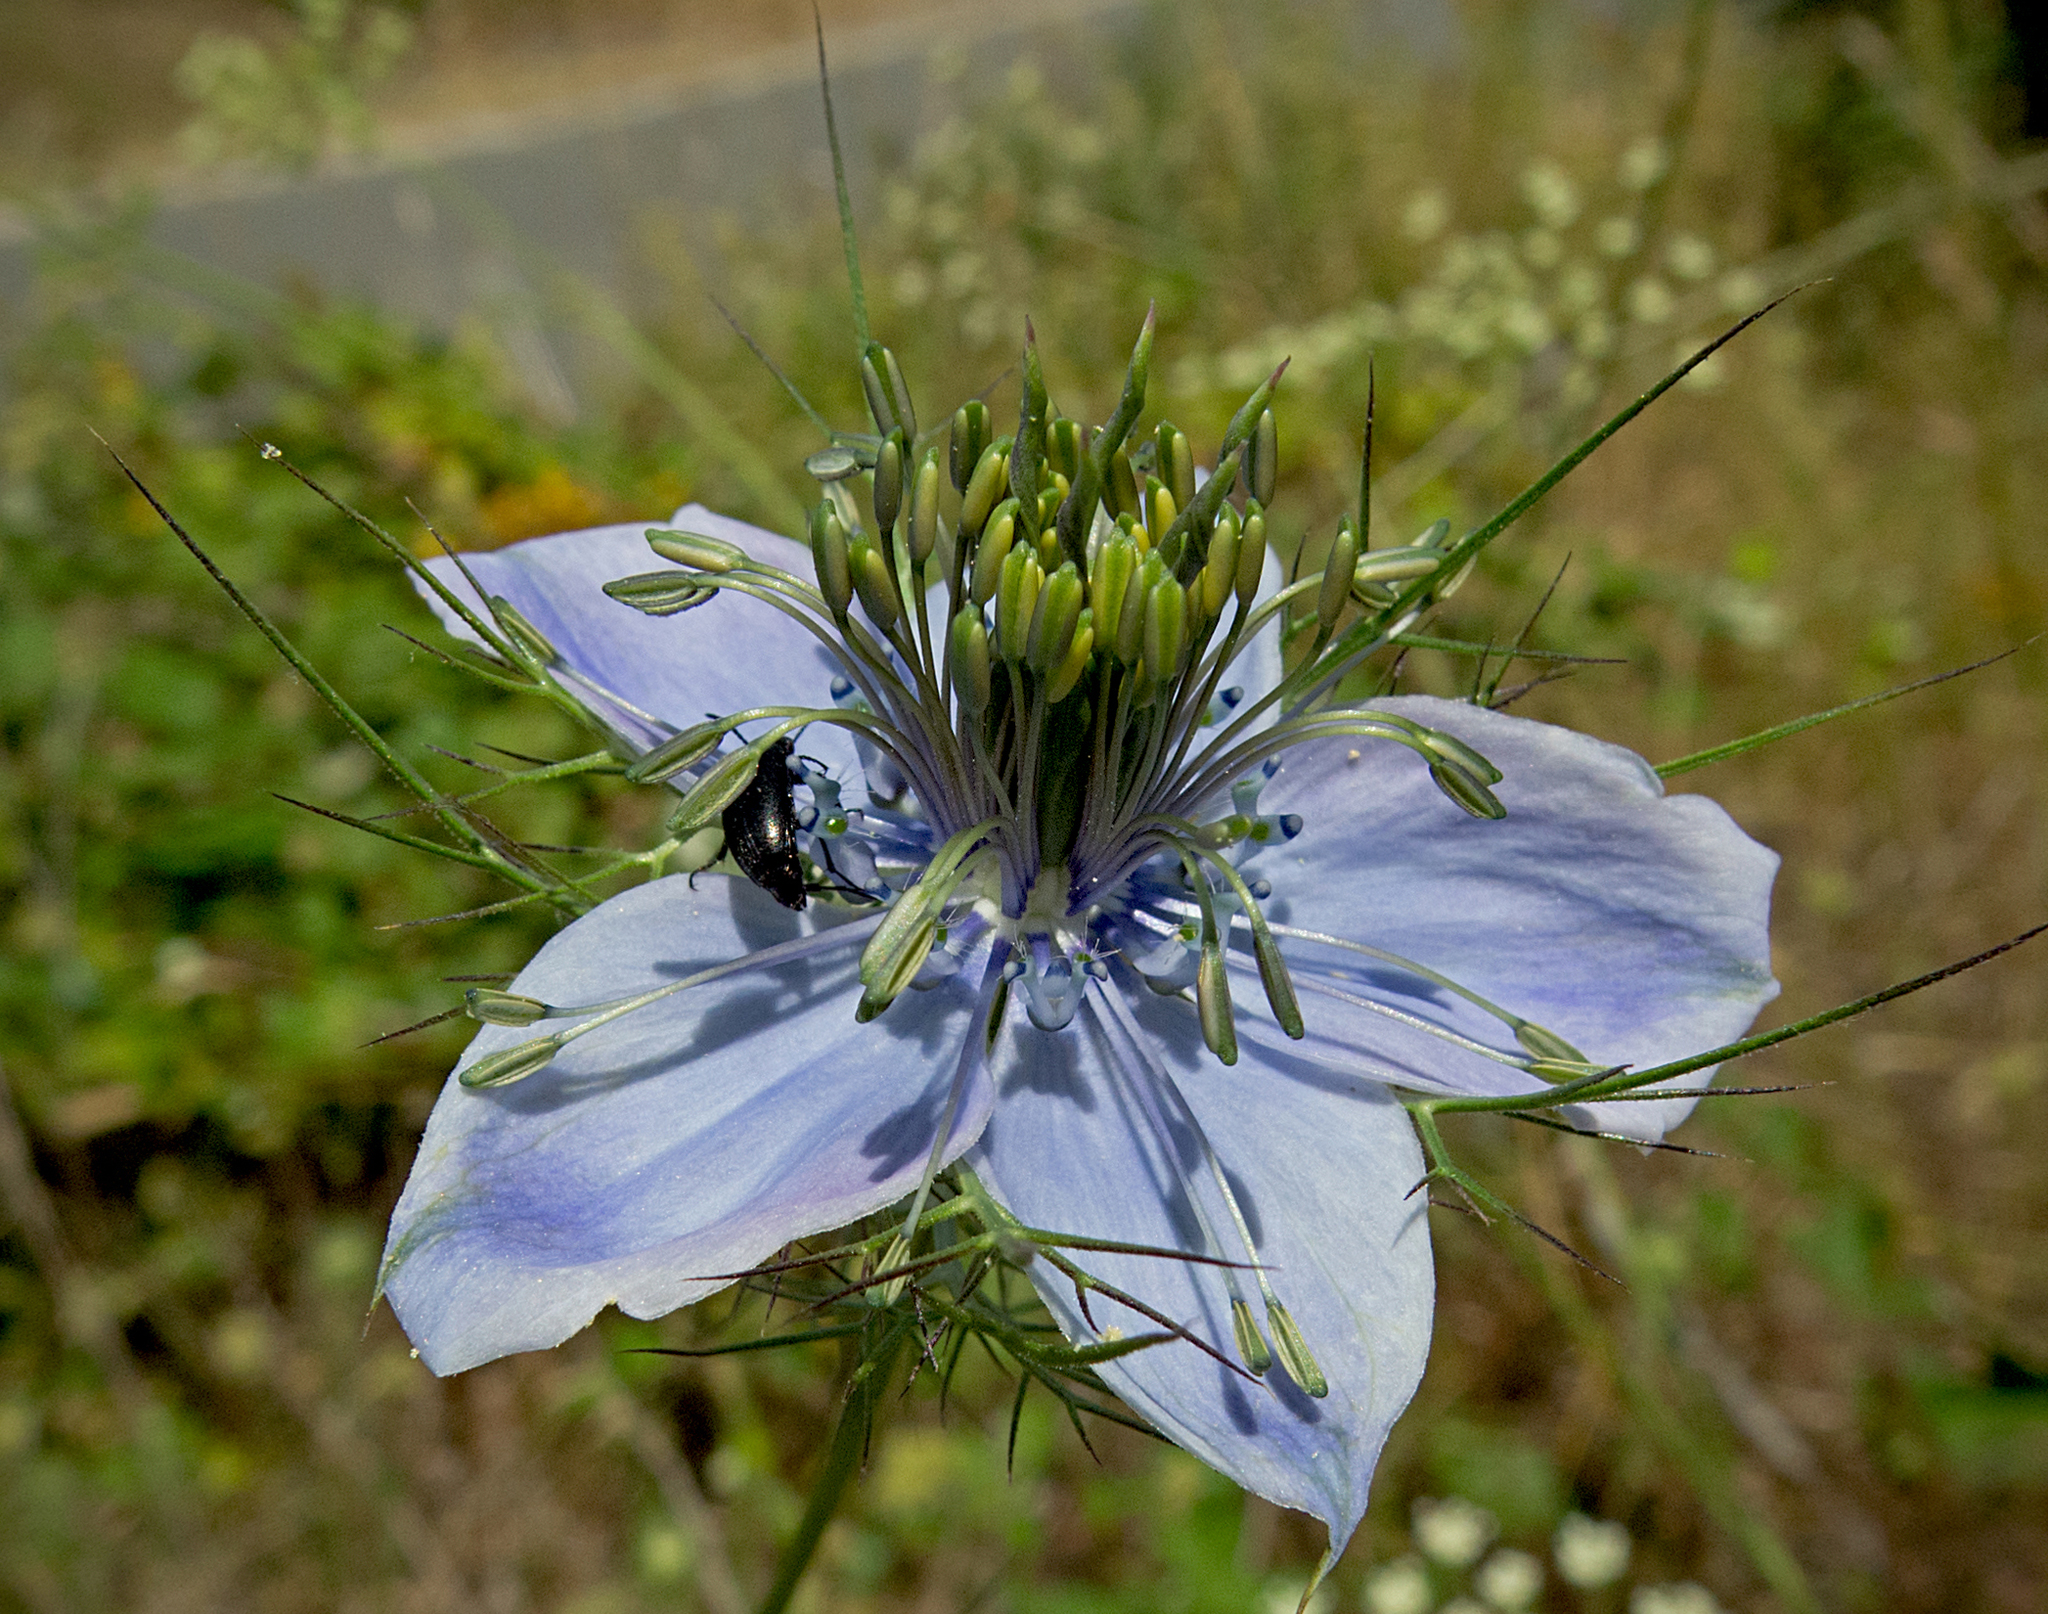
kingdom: Plantae
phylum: Tracheophyta
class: Magnoliopsida
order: Ranunculales
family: Ranunculaceae
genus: Nigella
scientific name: Nigella damascena
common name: Love-in-a-mist
